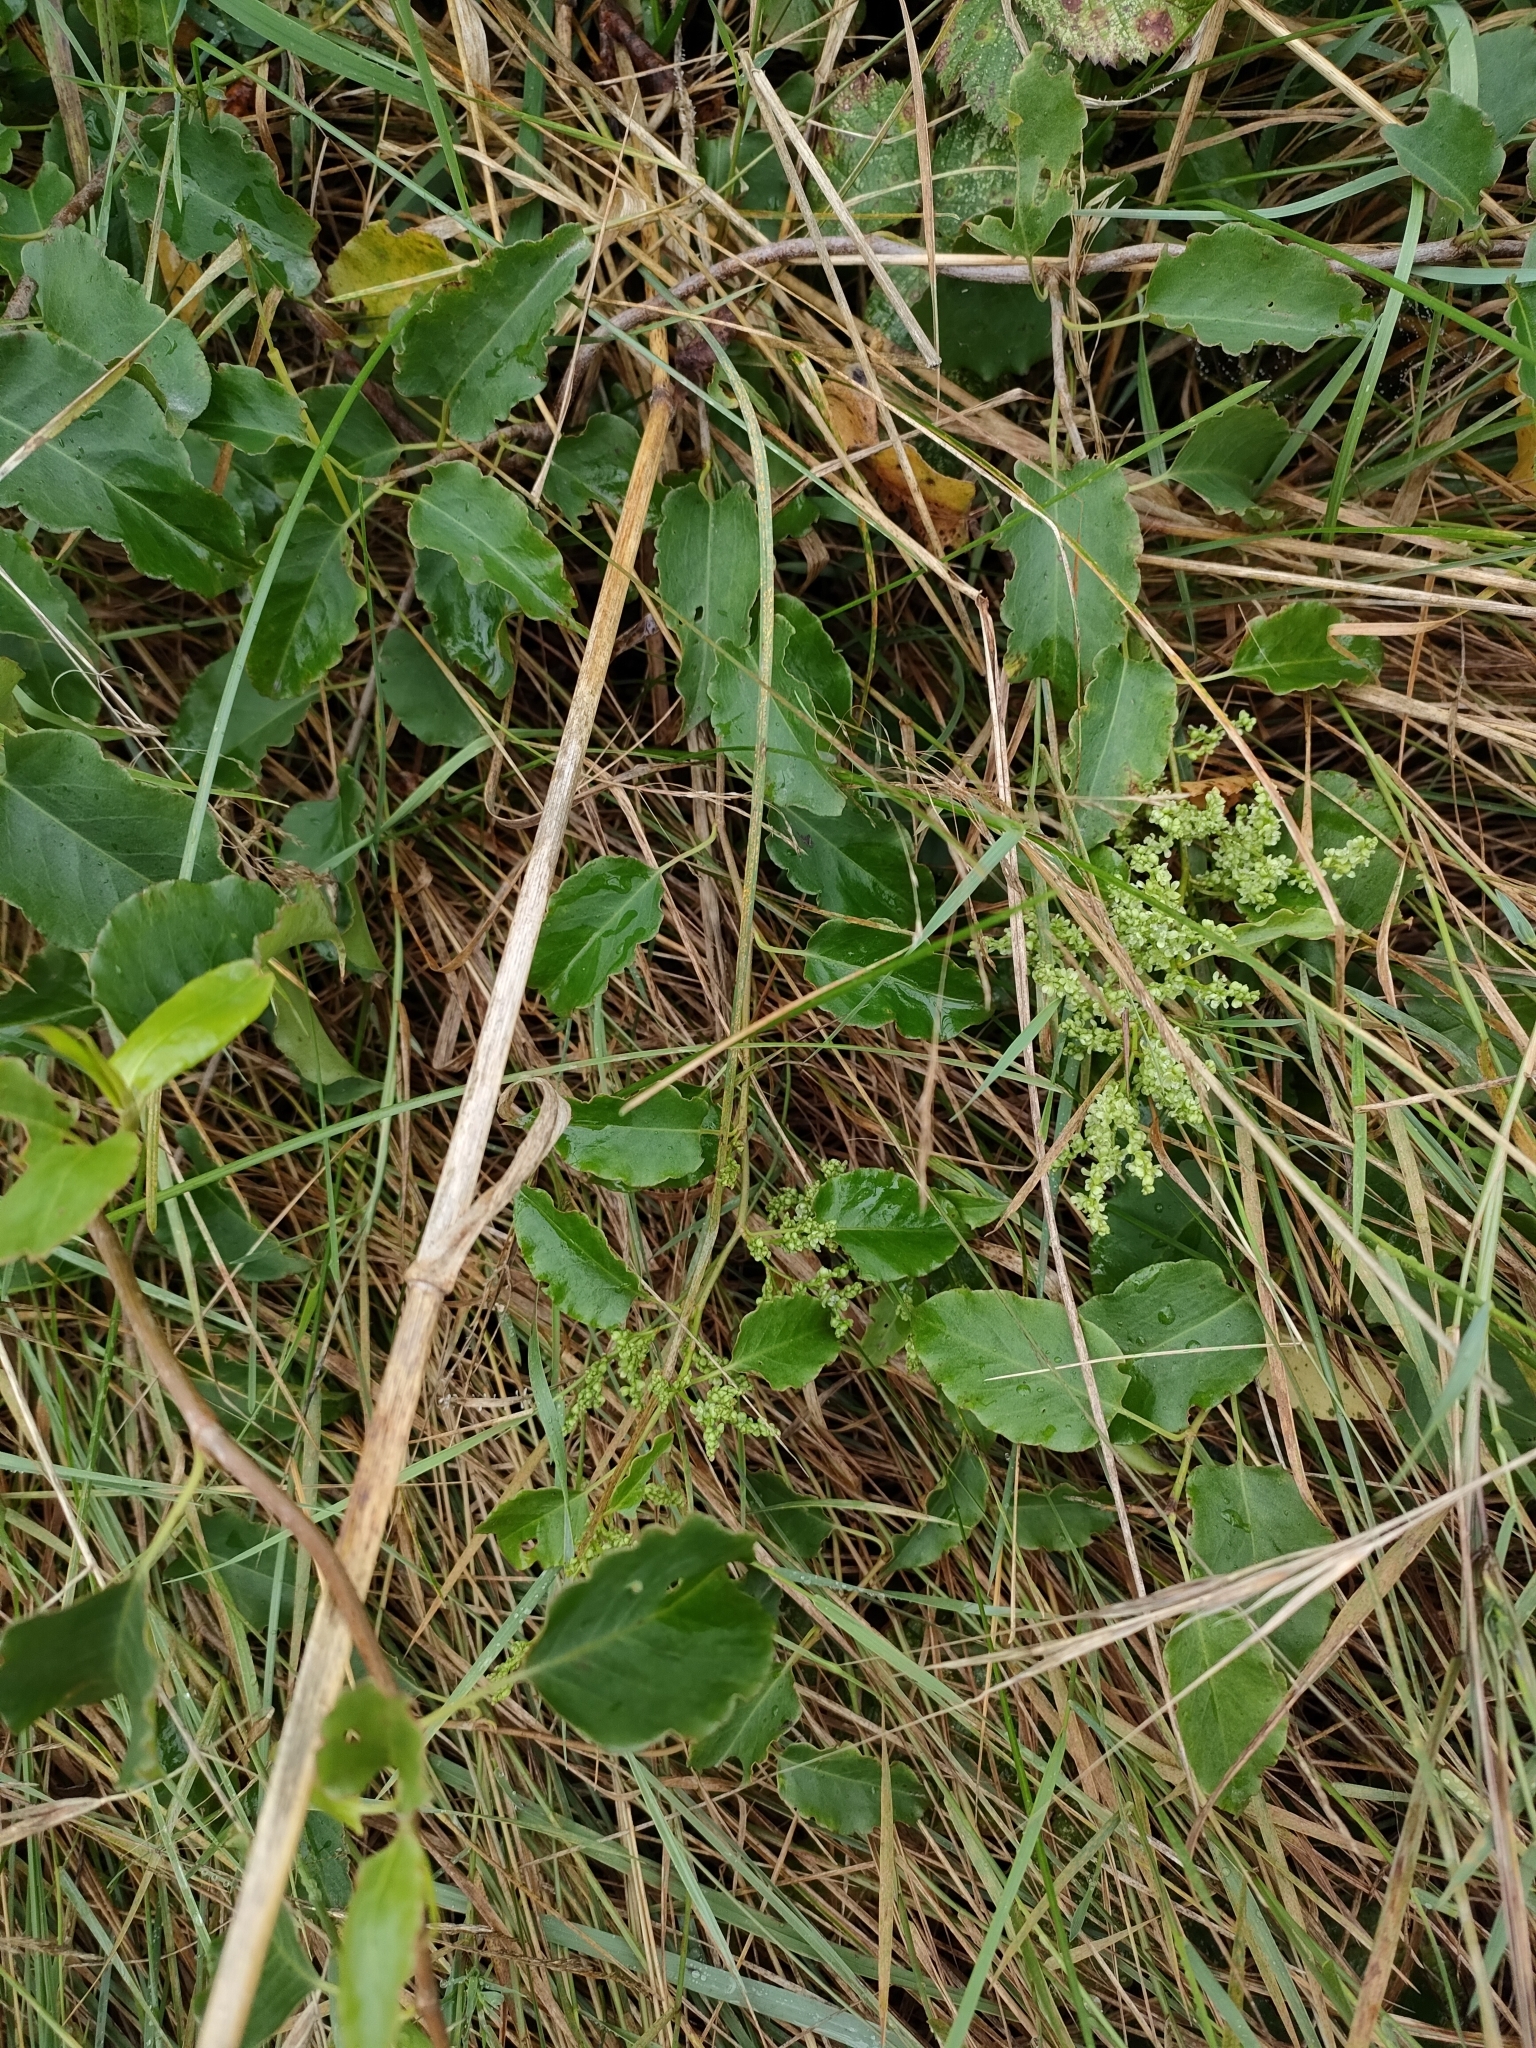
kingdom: Plantae
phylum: Tracheophyta
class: Magnoliopsida
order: Caryophyllales
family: Polygonaceae
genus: Muehlenbeckia
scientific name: Muehlenbeckia australis
